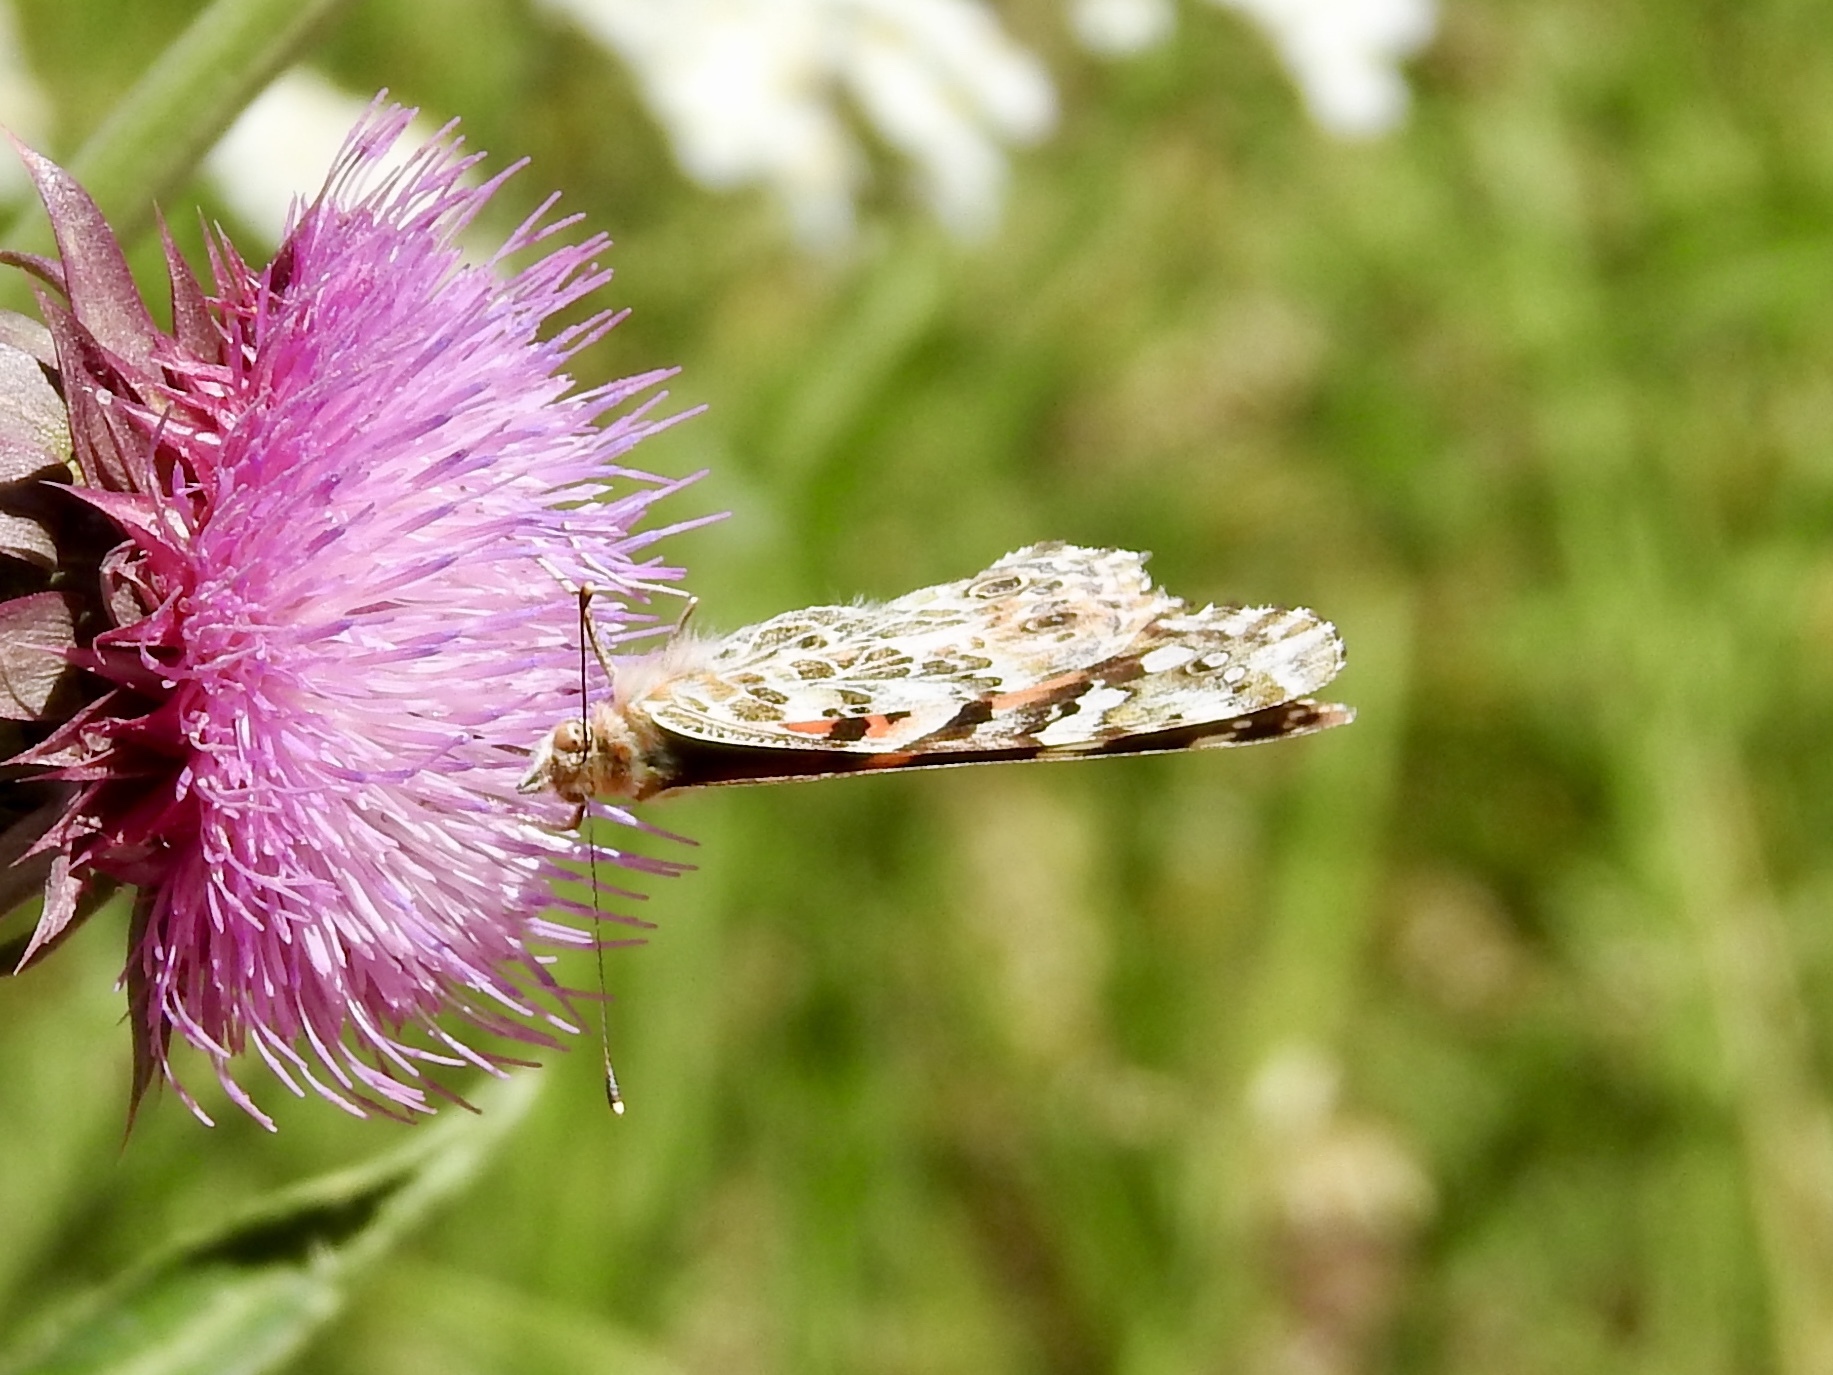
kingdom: Animalia
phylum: Arthropoda
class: Insecta
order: Lepidoptera
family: Nymphalidae
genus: Vanessa
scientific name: Vanessa cardui
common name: Painted lady
